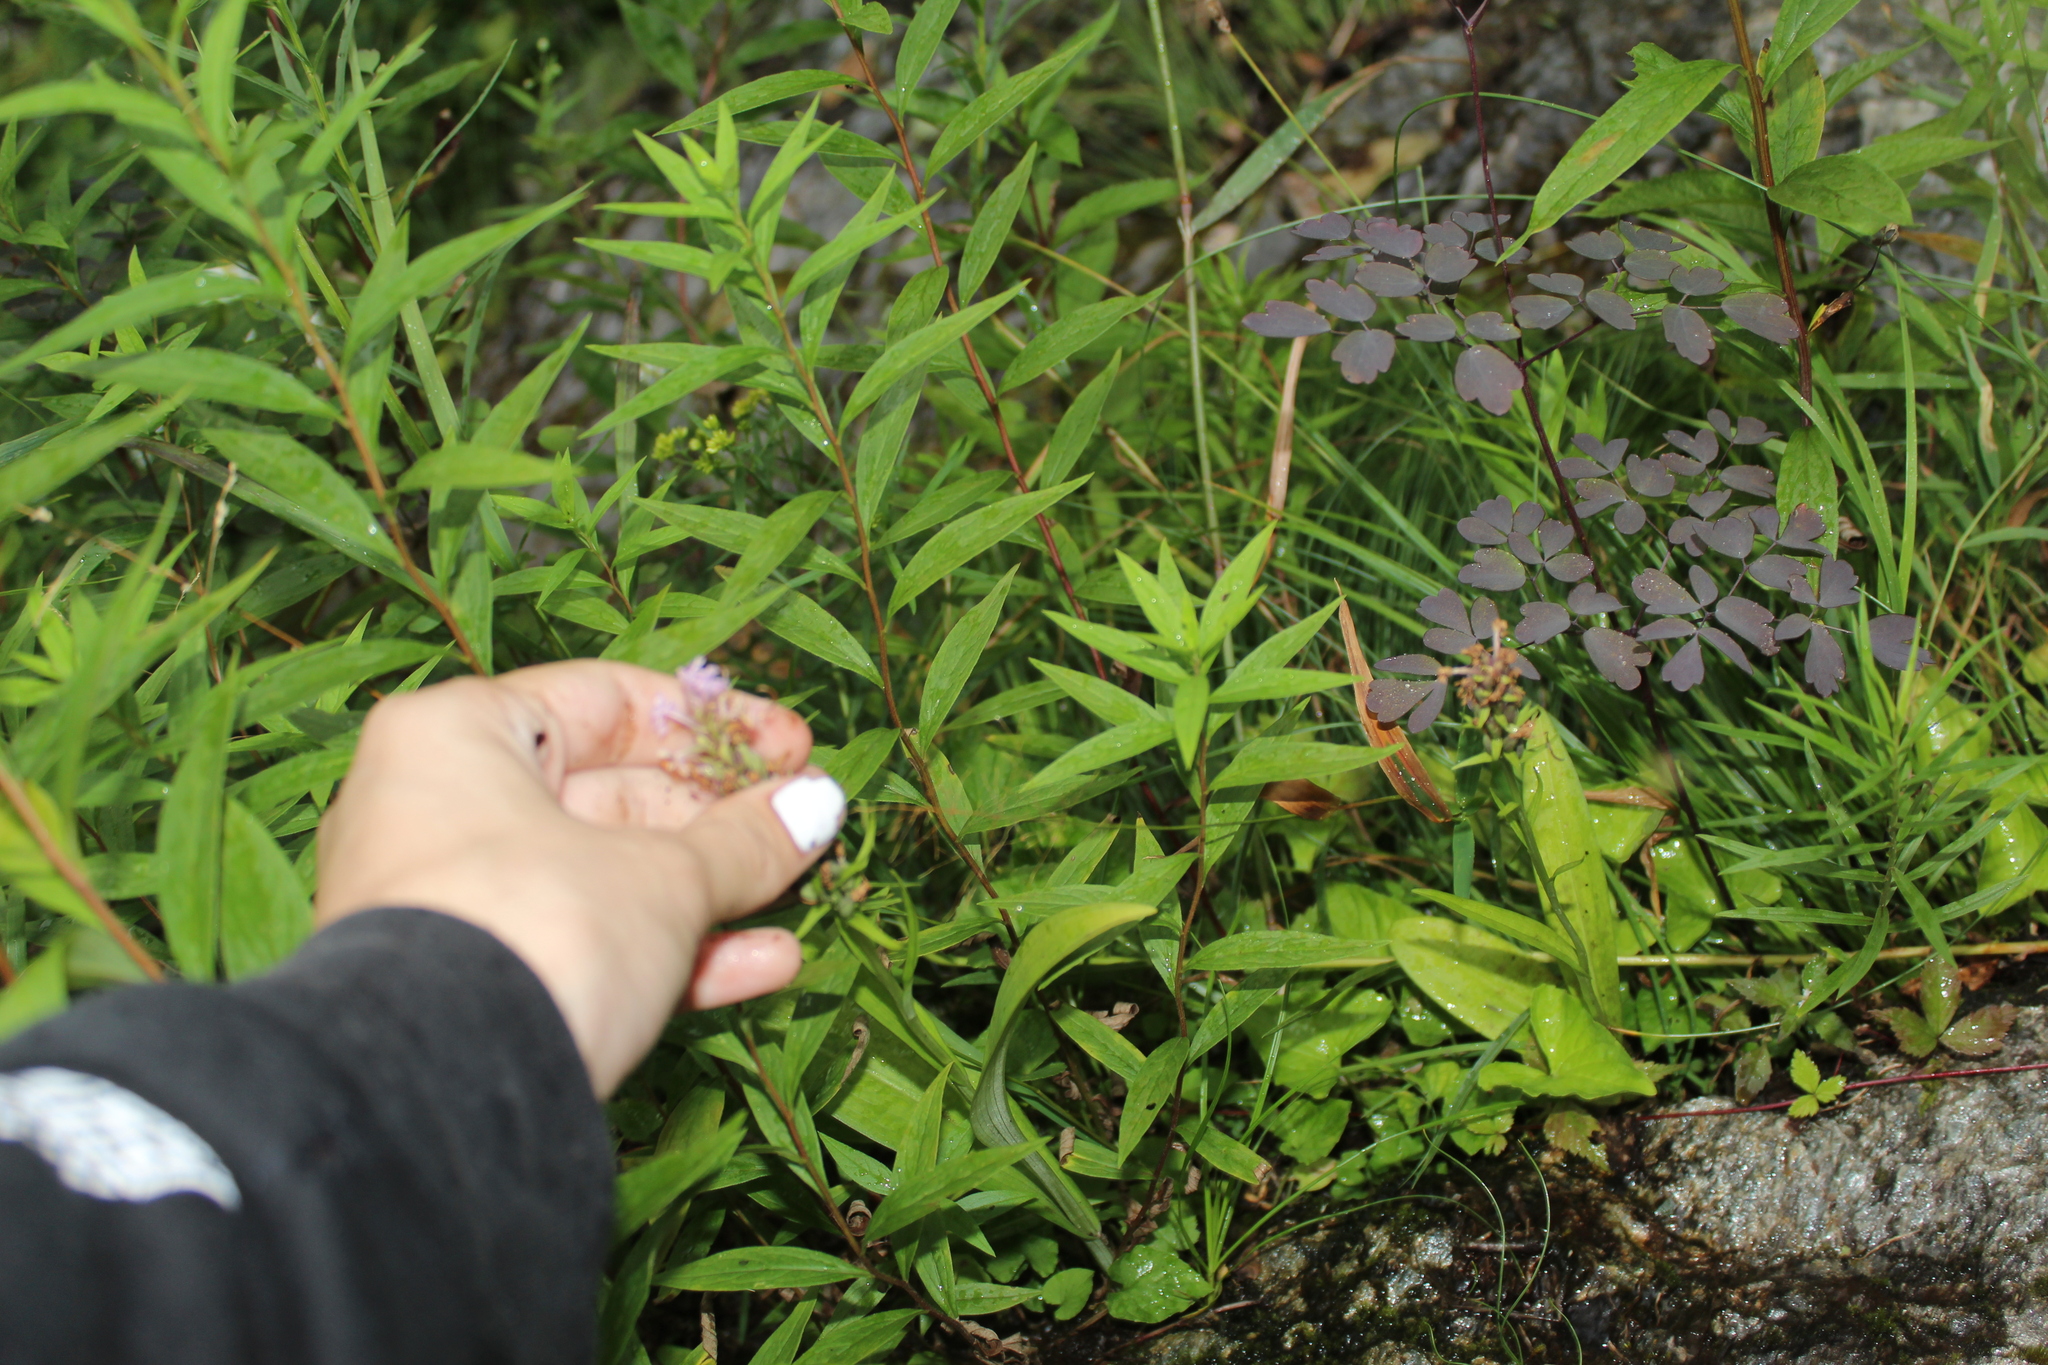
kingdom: Plantae
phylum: Tracheophyta
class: Liliopsida
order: Asparagales
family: Orchidaceae
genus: Platanthera
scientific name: Platanthera psycodes
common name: Lesser purple fringed orchid
